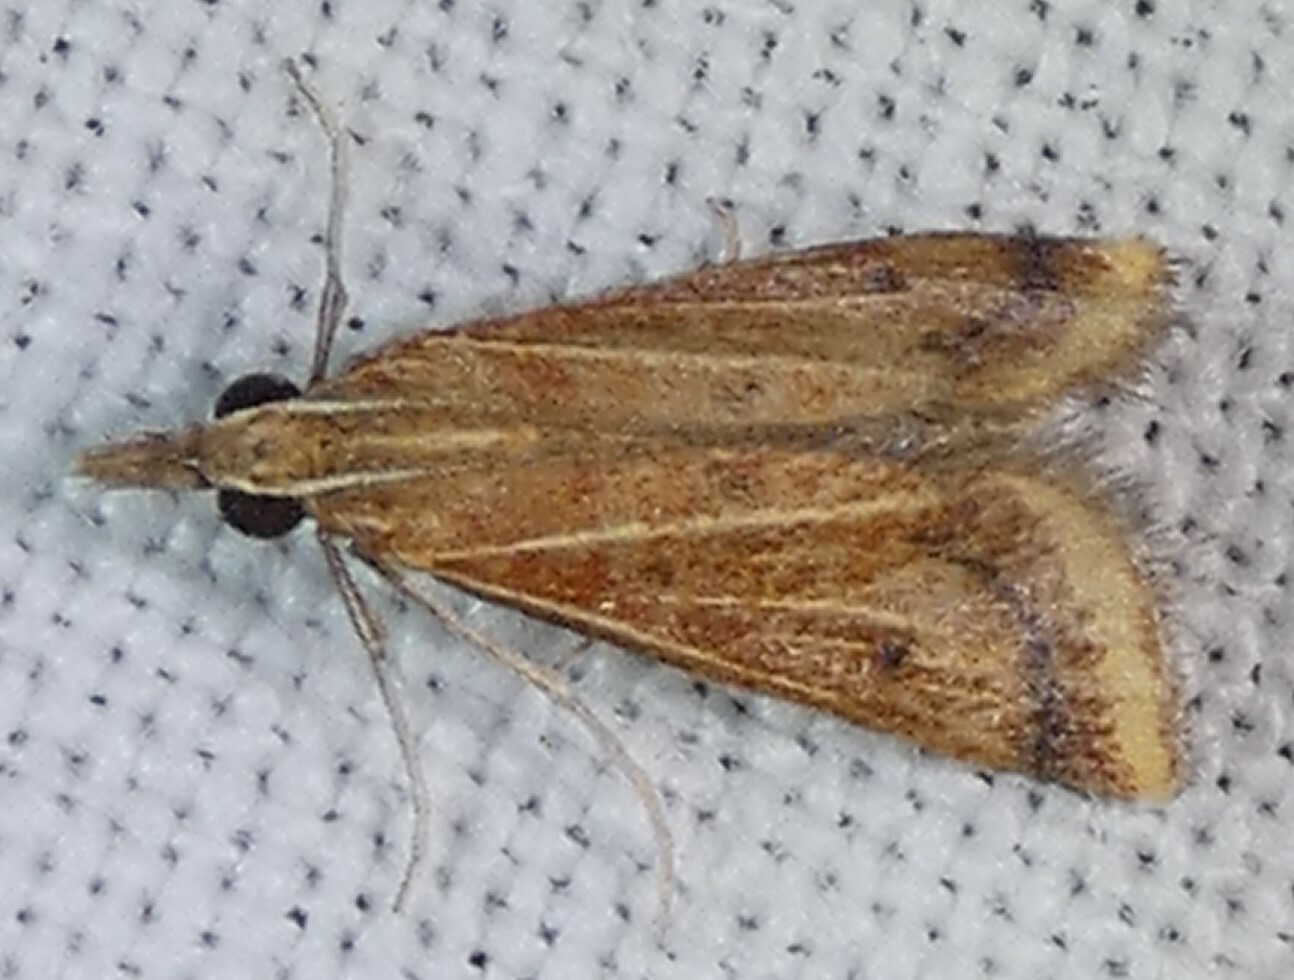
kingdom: Animalia
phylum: Arthropoda
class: Insecta
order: Lepidoptera
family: Crambidae
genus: Microtheoris
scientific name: Microtheoris ophionalis
